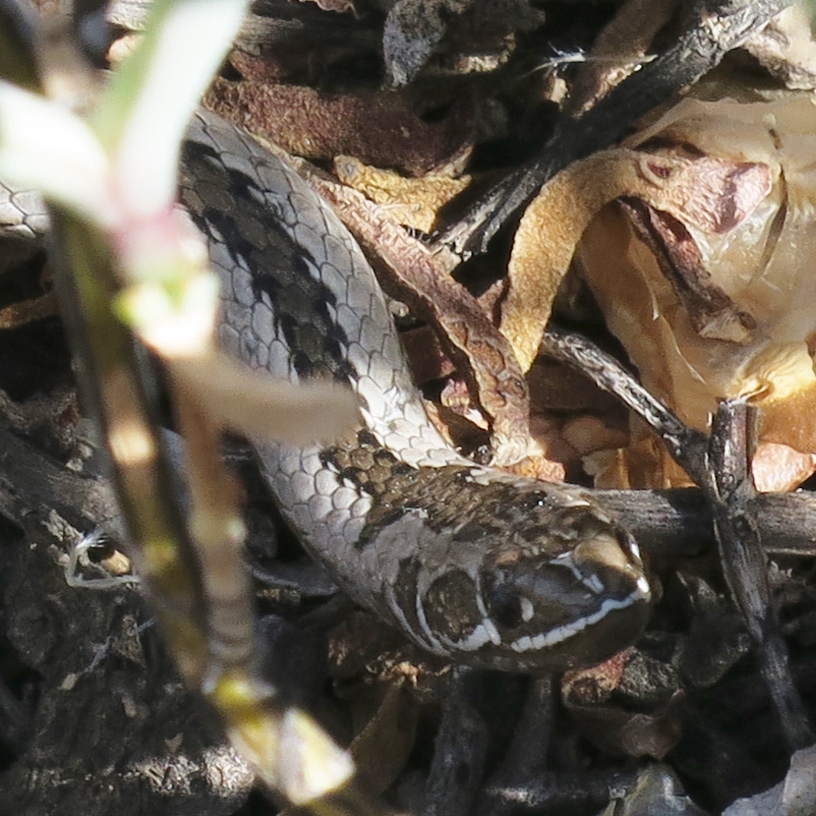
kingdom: Animalia
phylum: Chordata
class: Squamata
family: Psammophiidae
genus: Psammophis
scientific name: Psammophis crucifer
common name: Cross-marked grass snake
